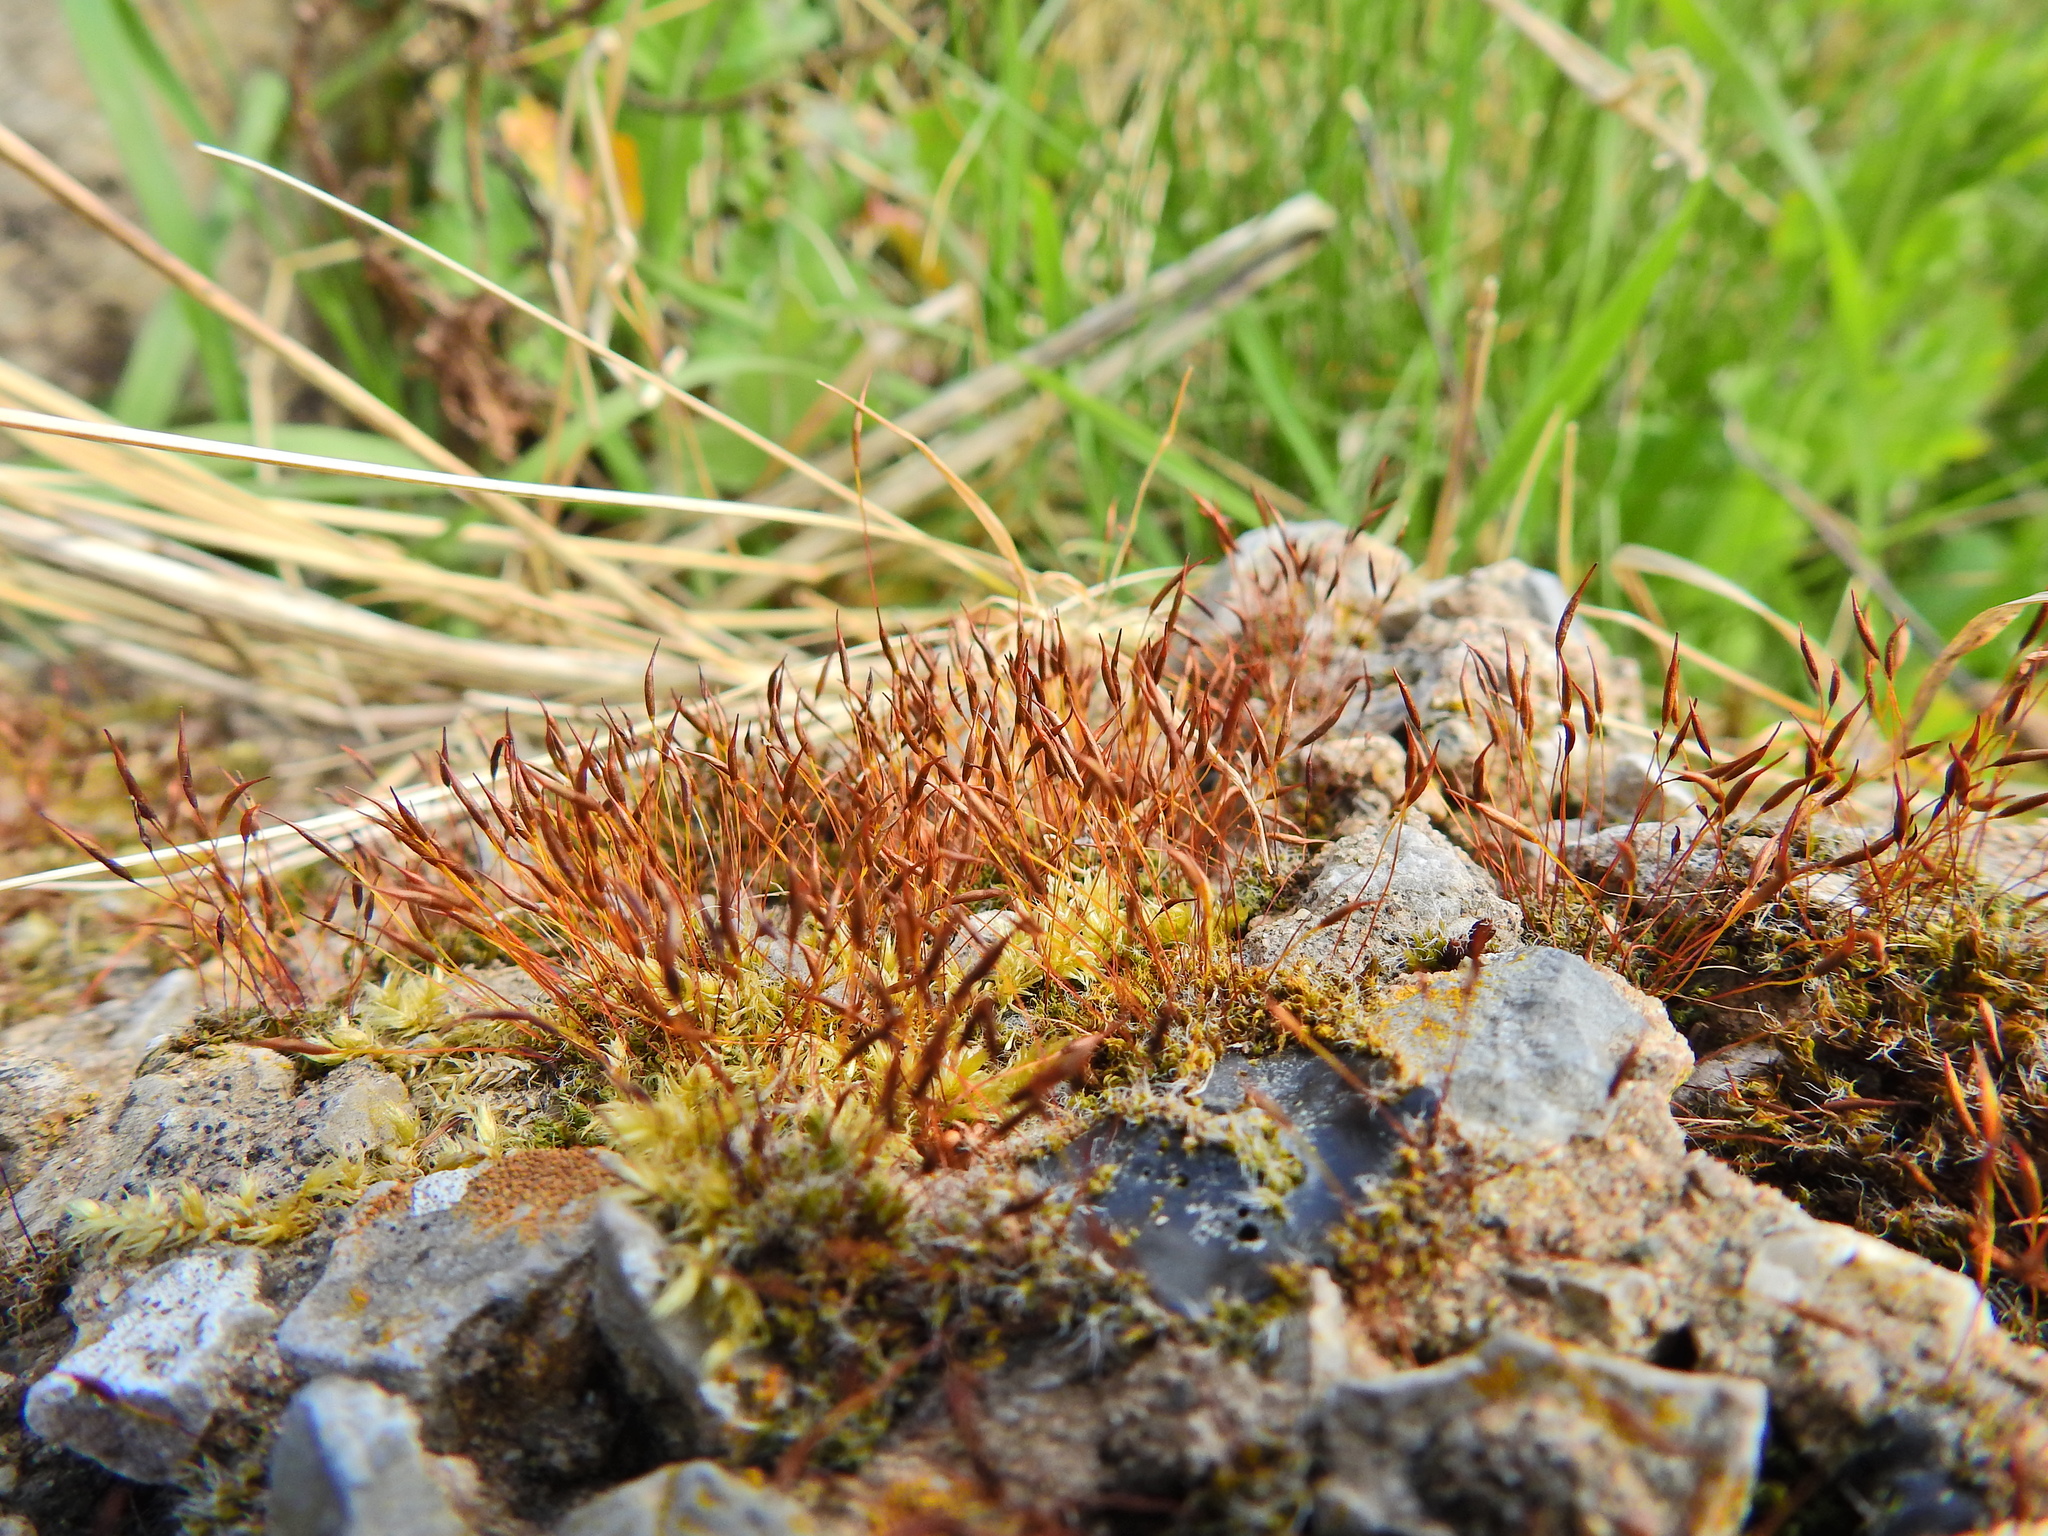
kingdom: Plantae
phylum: Bryophyta
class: Bryopsida
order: Pottiales
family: Pottiaceae
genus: Tortula
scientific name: Tortula muralis
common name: Wall screw-moss
